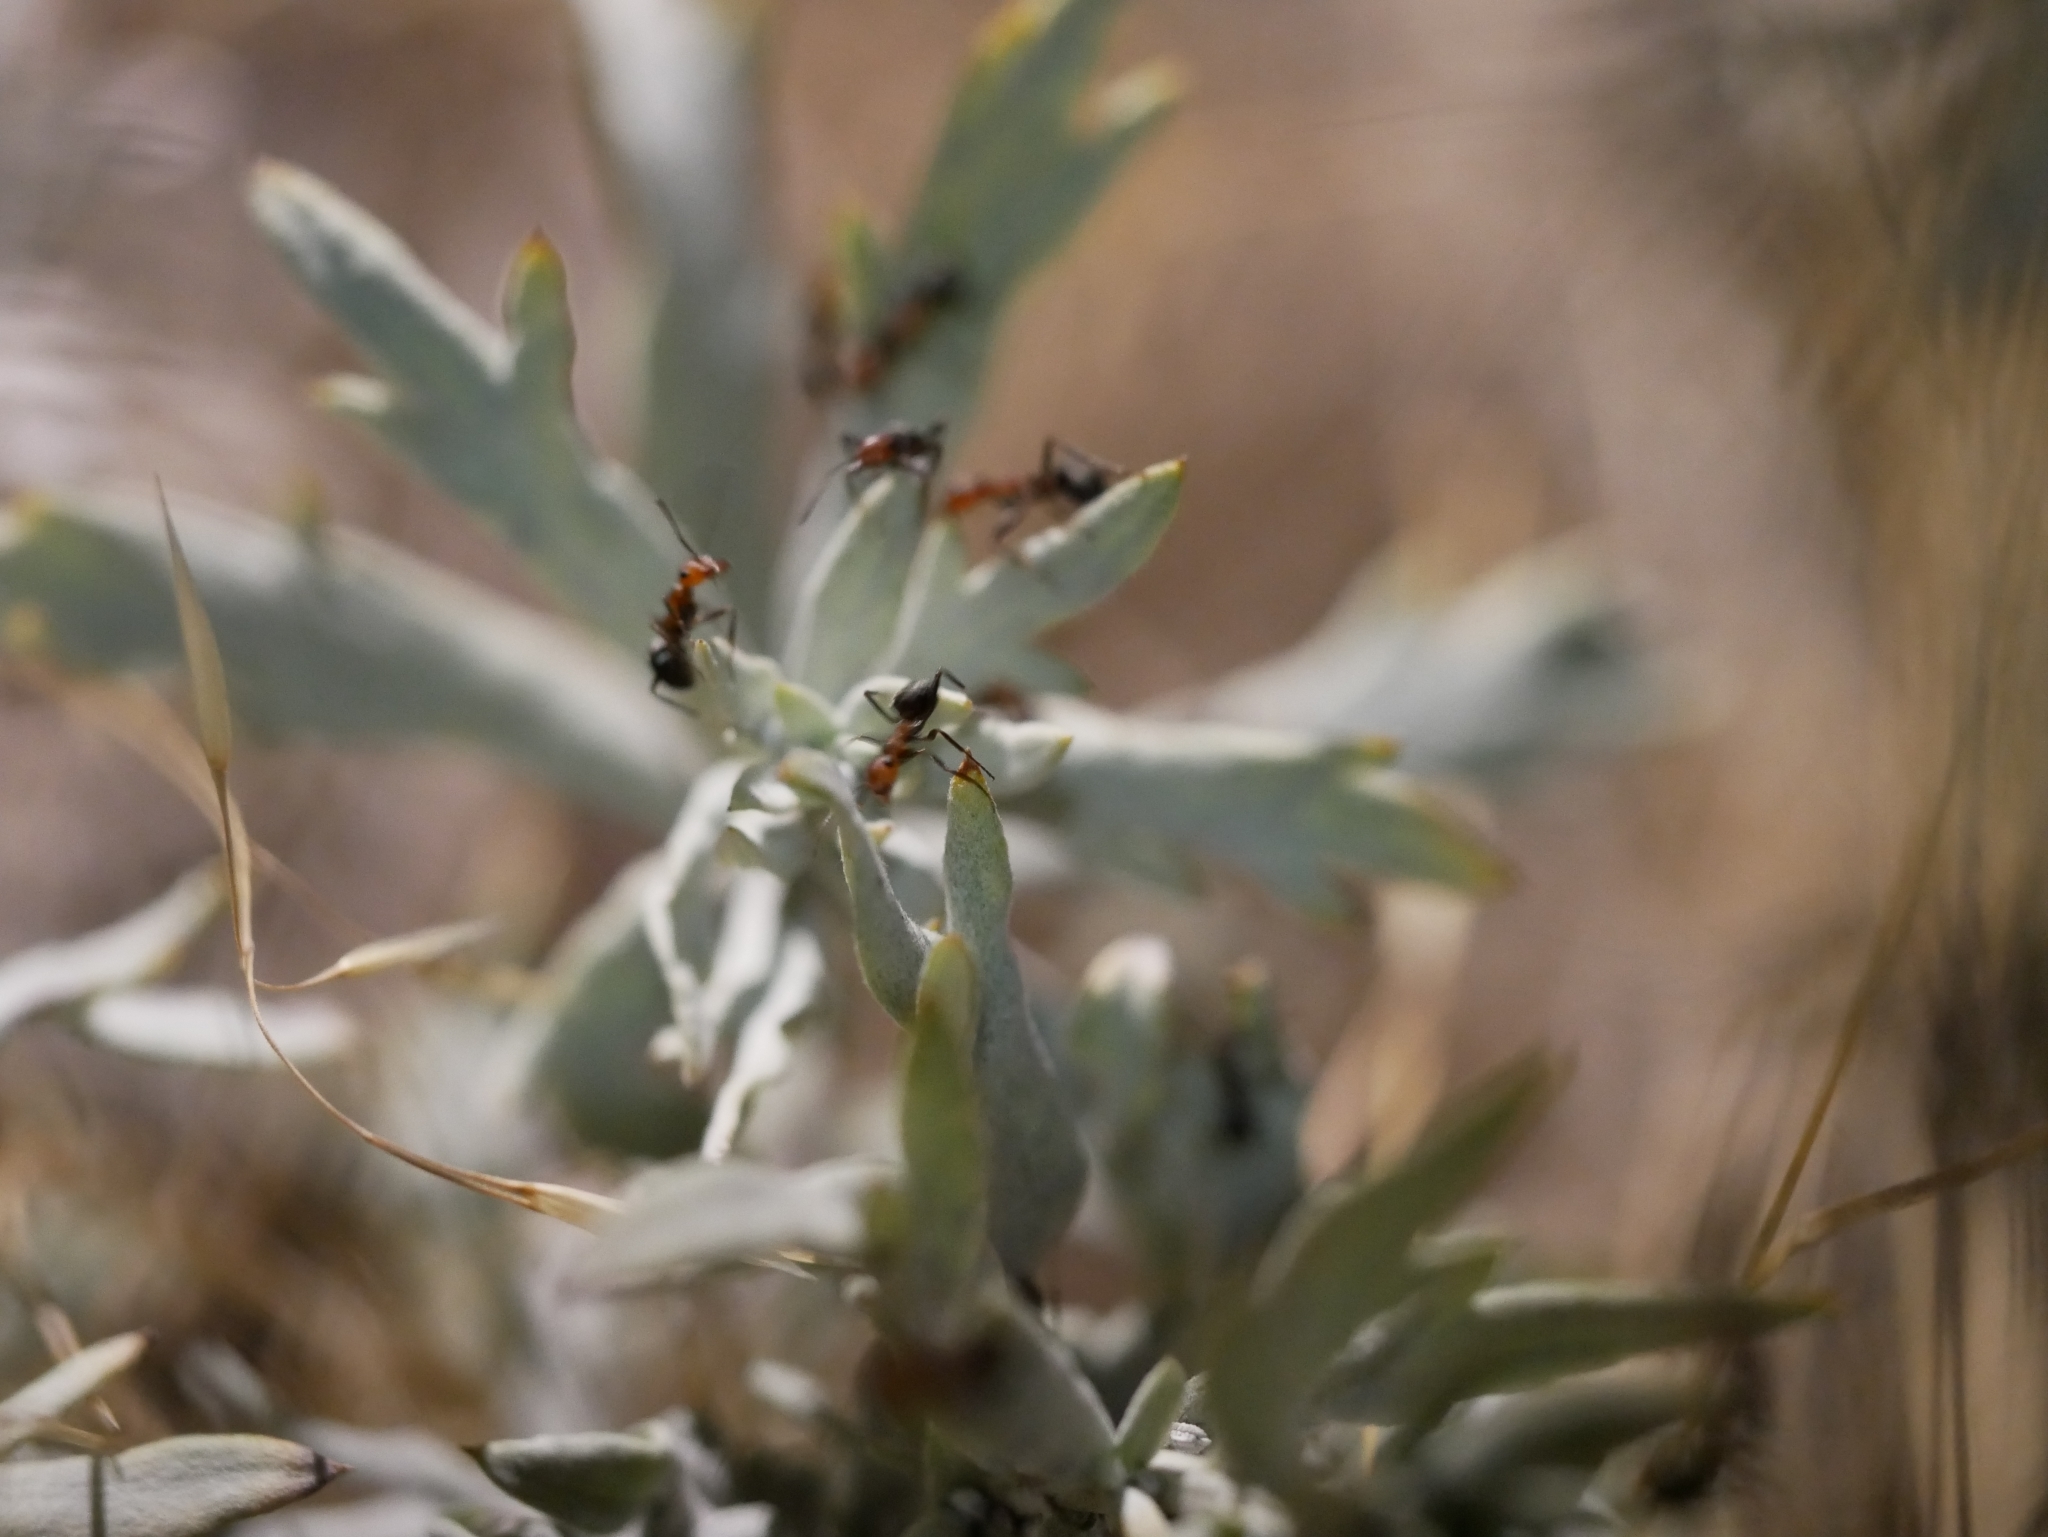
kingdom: Animalia
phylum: Arthropoda
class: Insecta
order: Hymenoptera
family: Formicidae
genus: Formica
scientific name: Formica subnitens
